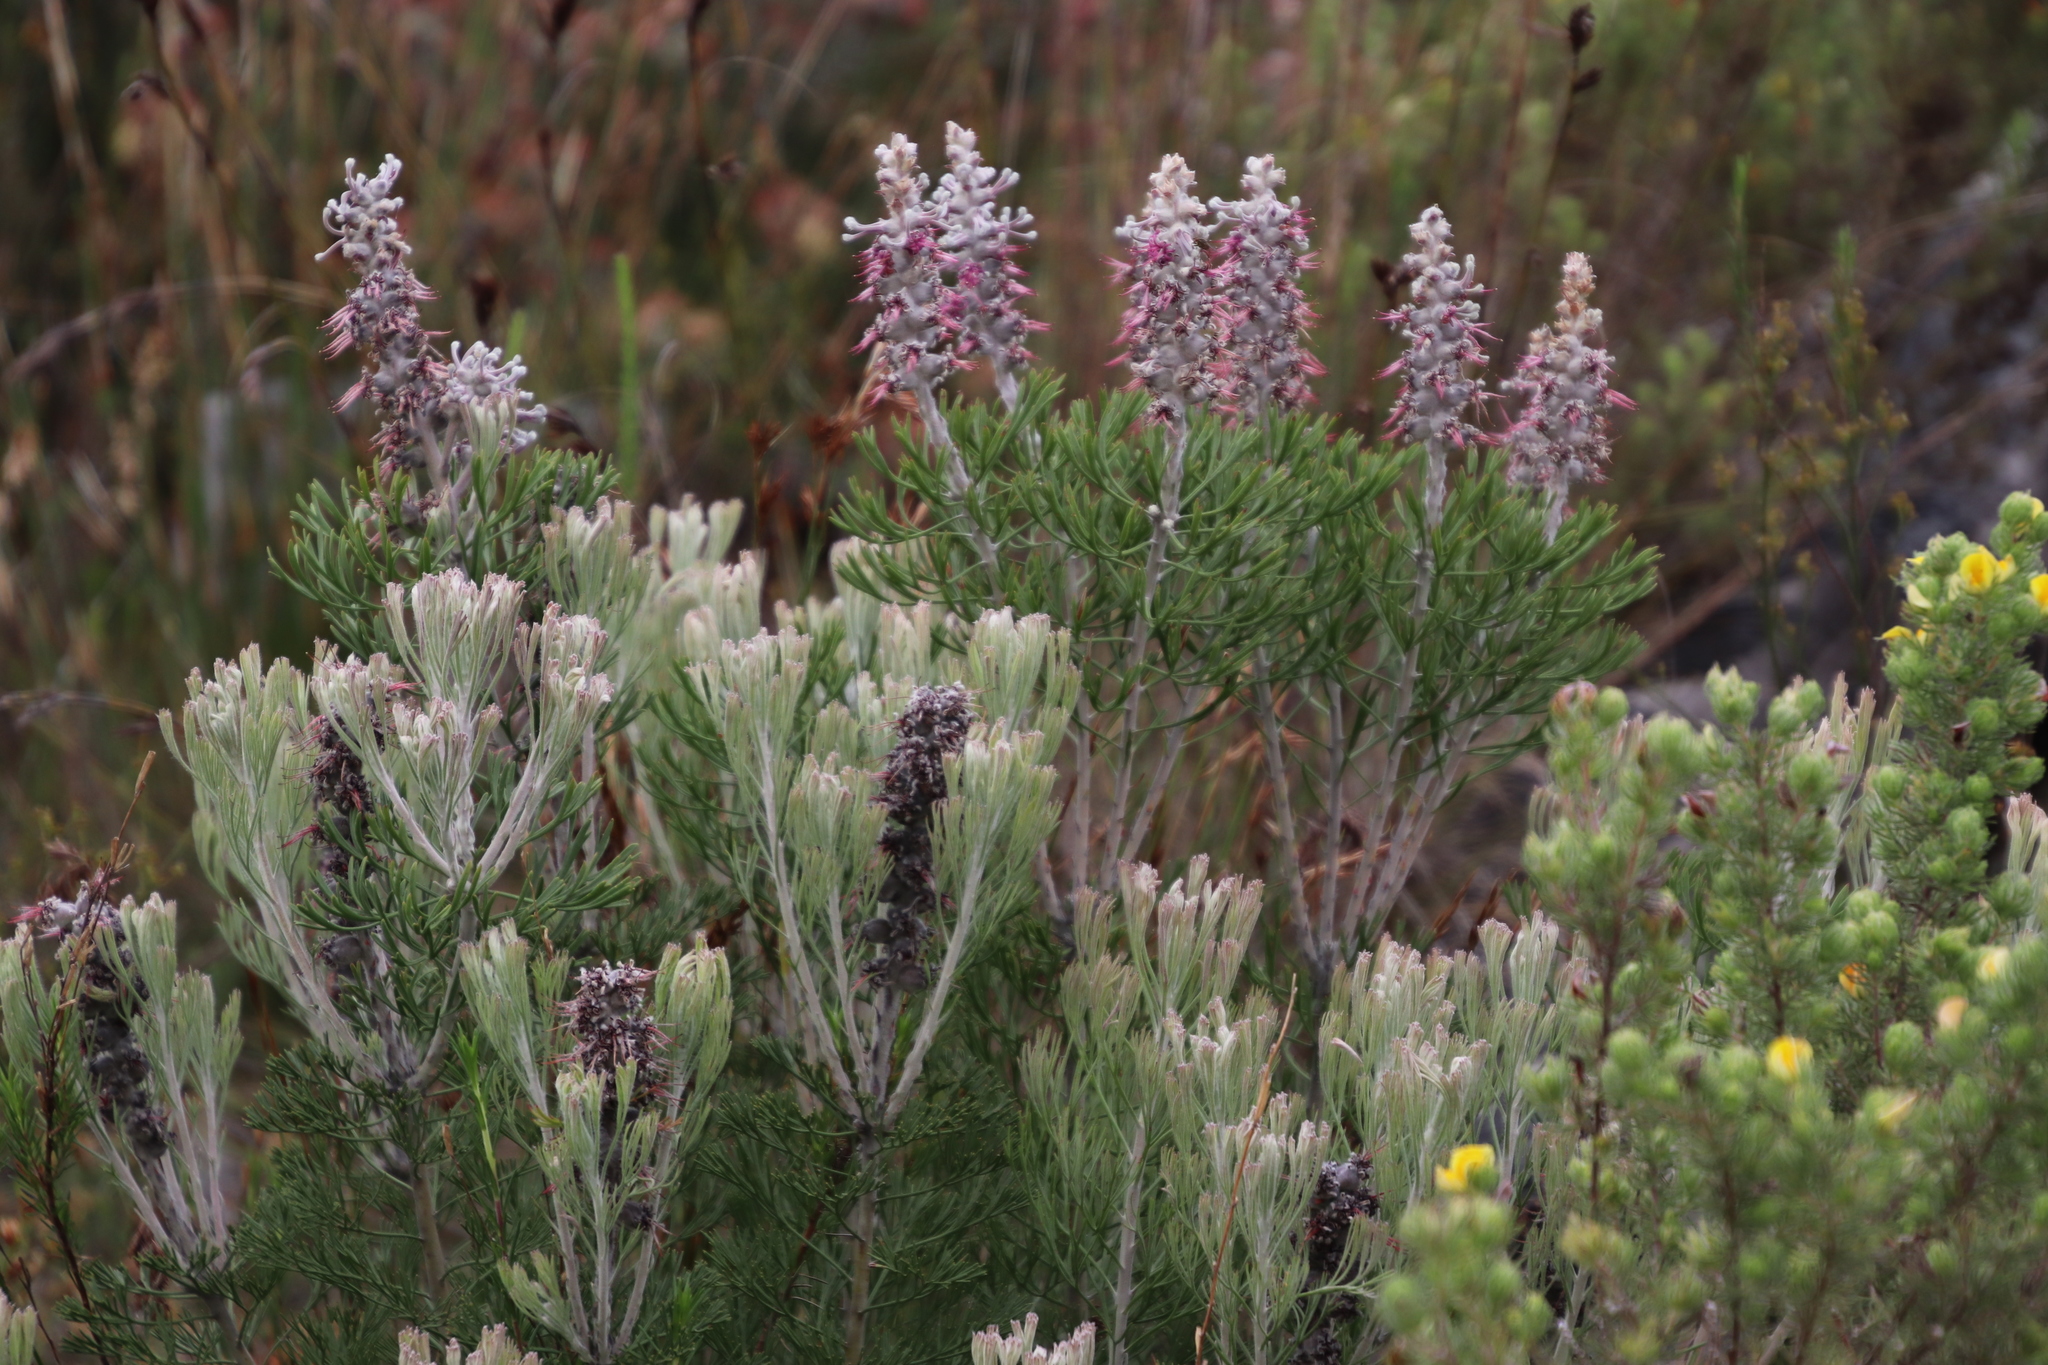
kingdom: Plantae
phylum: Tracheophyta
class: Magnoliopsida
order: Proteales
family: Proteaceae
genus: Paranomus
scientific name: Paranomus dispersus
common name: Long-head sceptre
